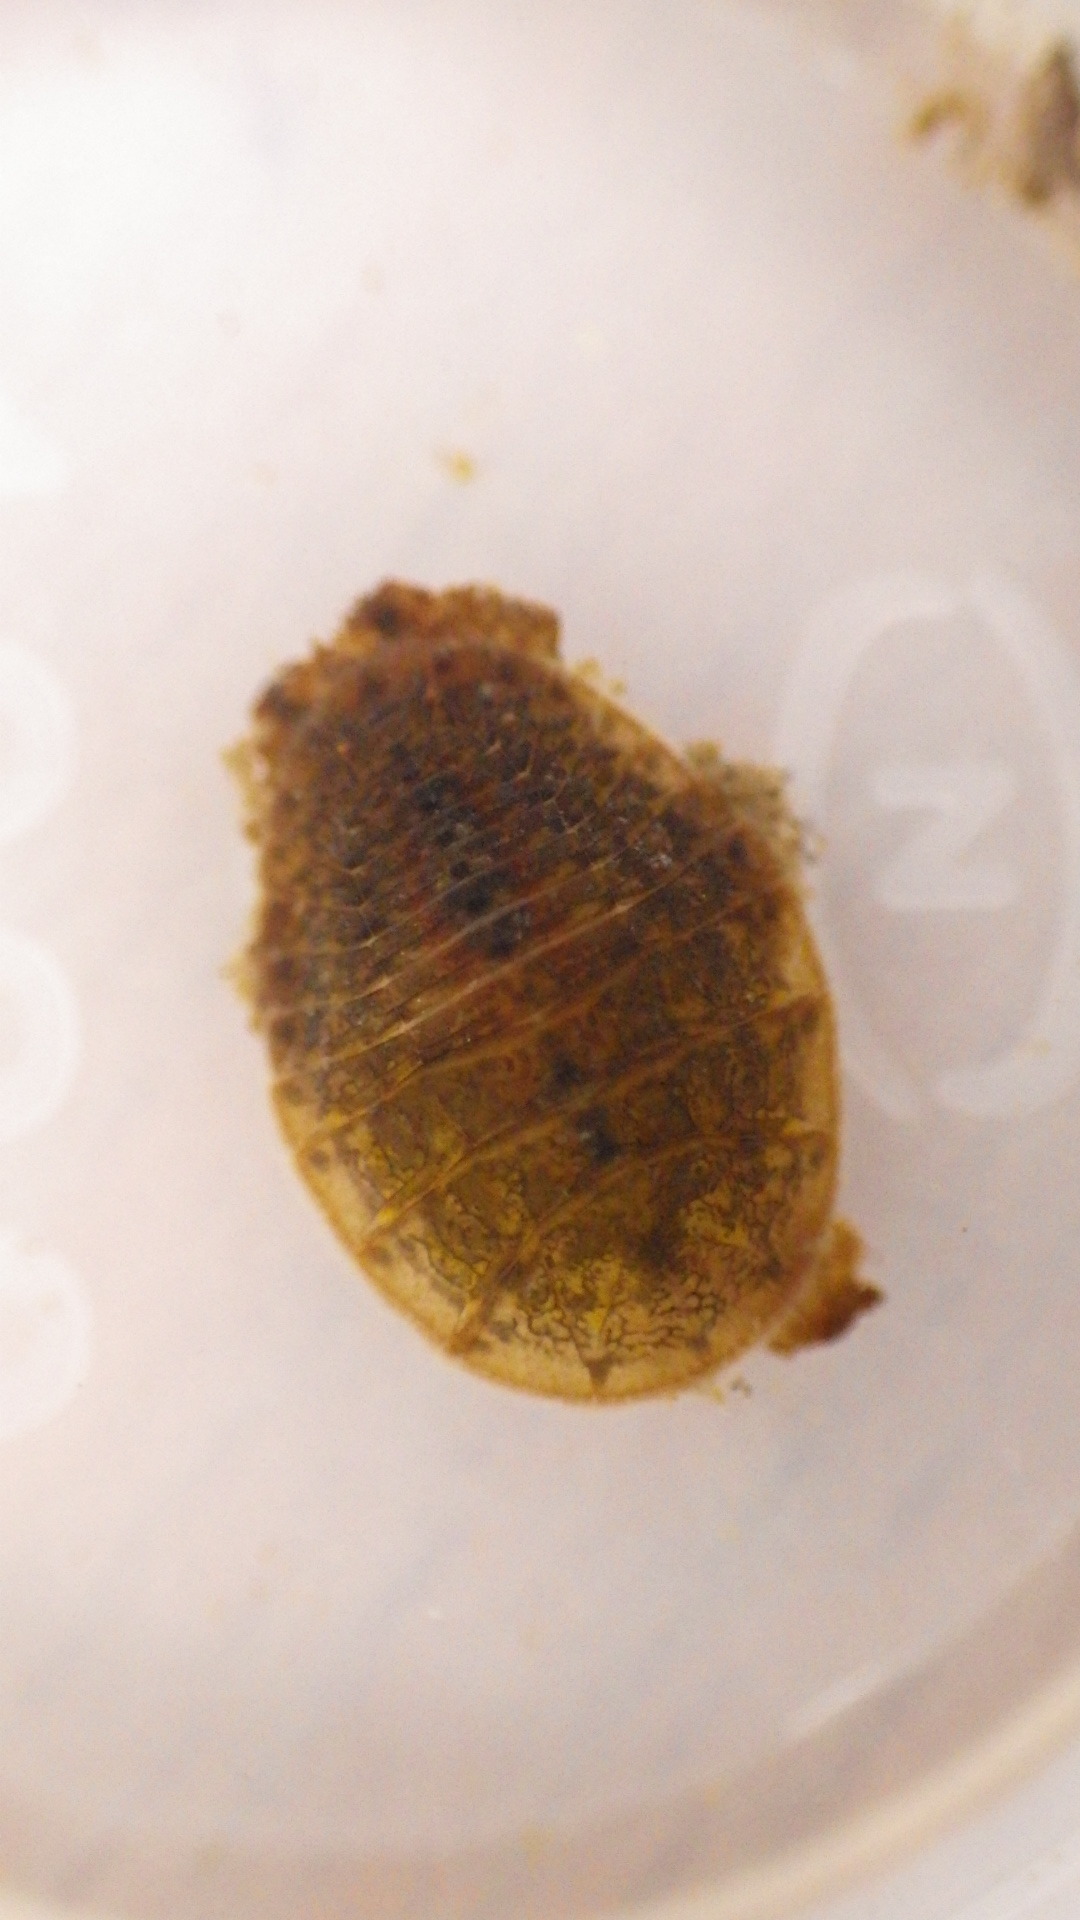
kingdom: Animalia
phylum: Arthropoda
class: Insecta
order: Coleoptera
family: Psephenidae
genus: Psephenus
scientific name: Psephenus herricki
